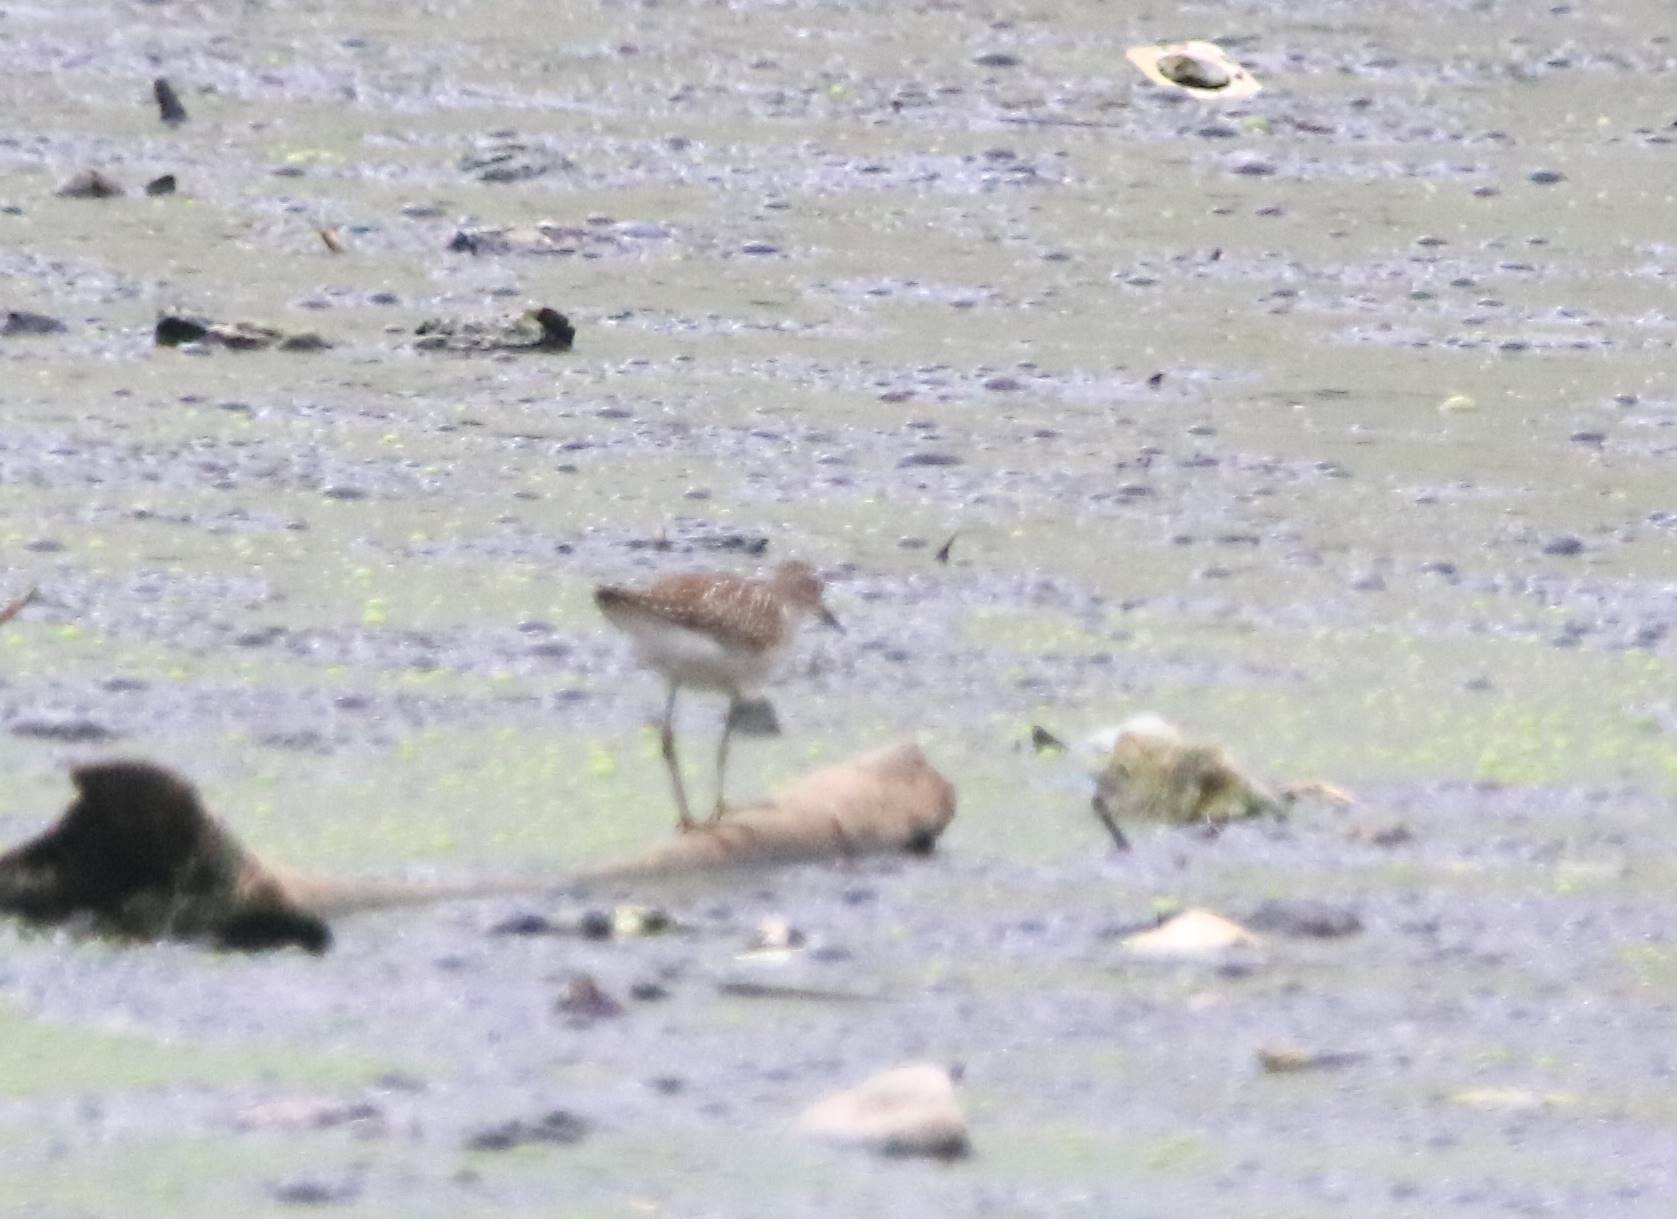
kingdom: Animalia
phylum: Chordata
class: Aves
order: Charadriiformes
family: Scolopacidae
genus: Tringa
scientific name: Tringa glareola
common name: Wood sandpiper
